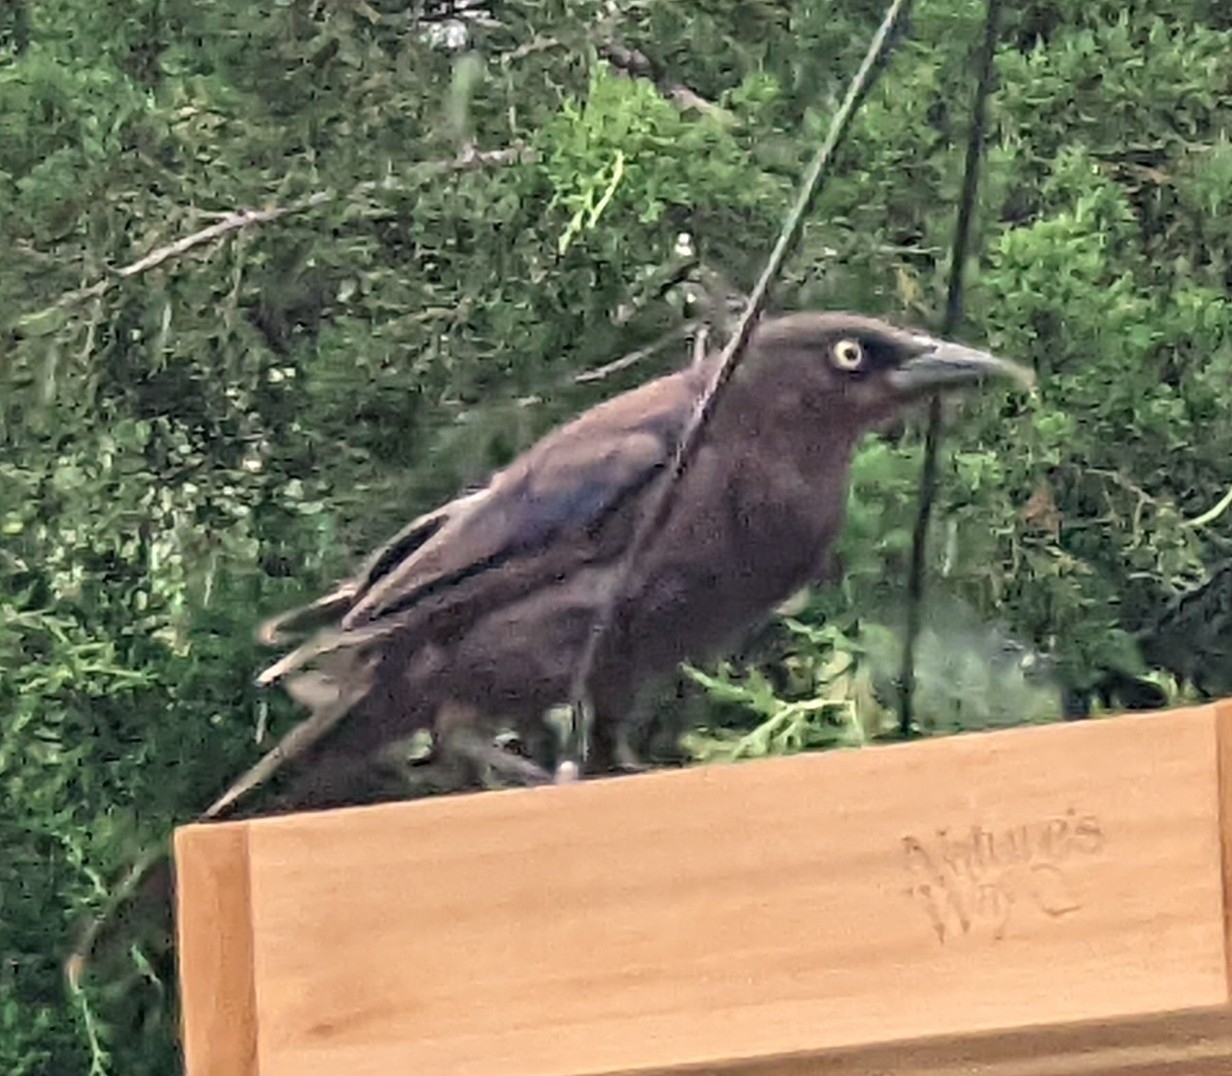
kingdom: Animalia
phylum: Chordata
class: Aves
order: Passeriformes
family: Icteridae
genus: Quiscalus
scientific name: Quiscalus quiscula
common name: Common grackle
